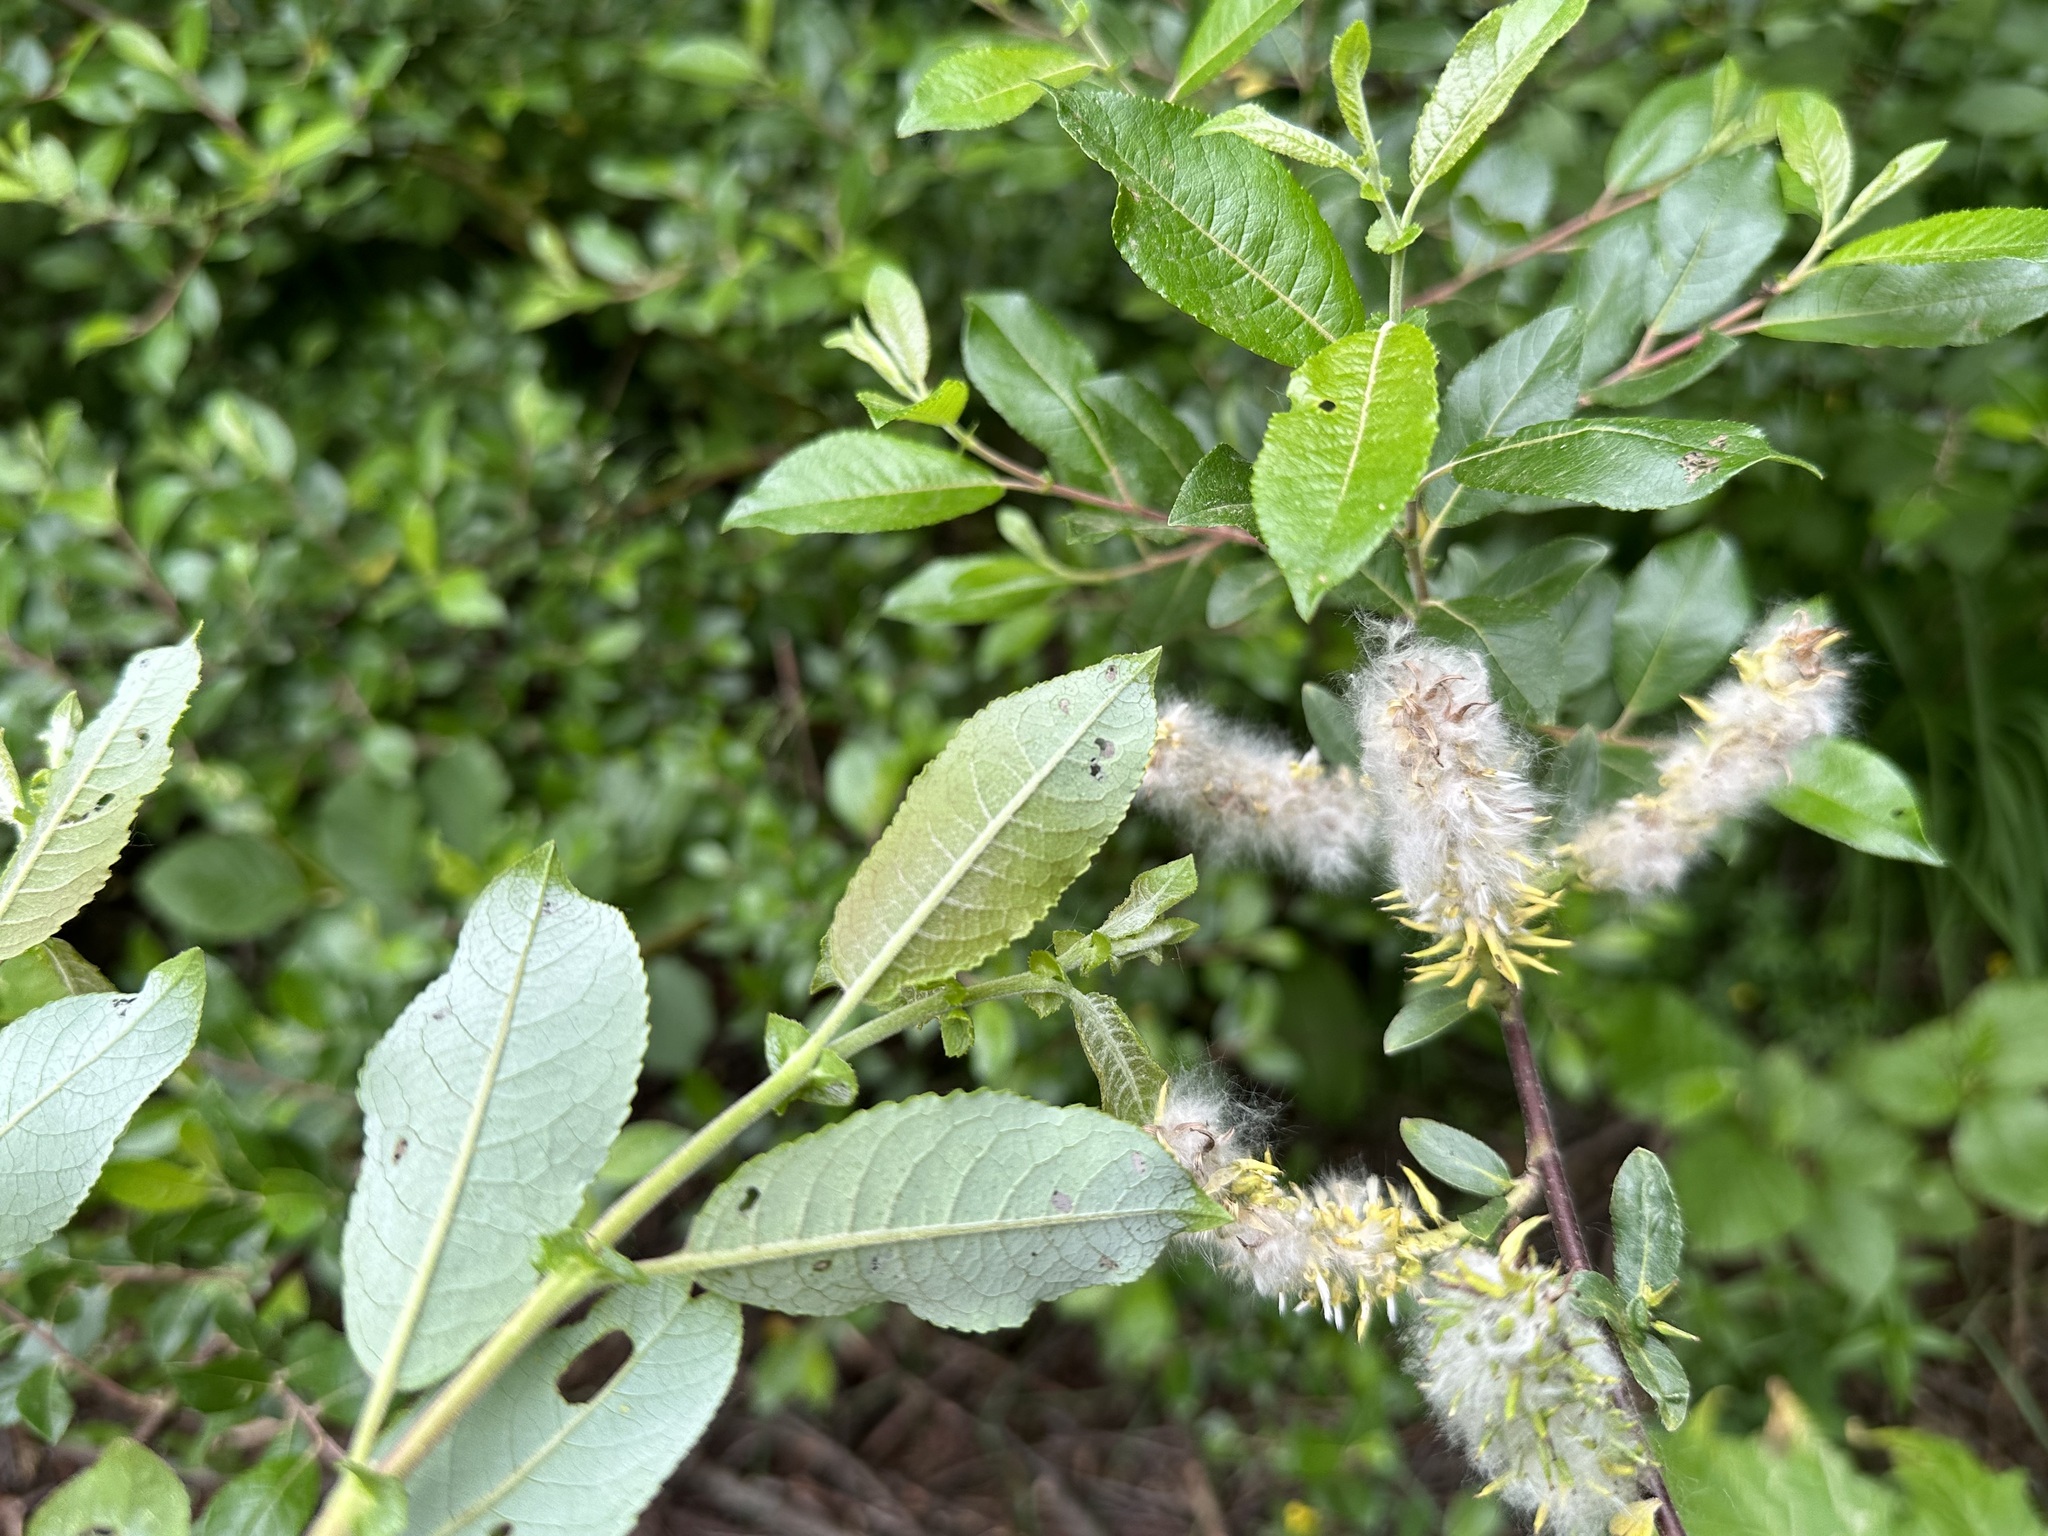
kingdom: Plantae
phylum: Tracheophyta
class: Magnoliopsida
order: Malpighiales
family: Salicaceae
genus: Salix
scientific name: Salix myrsinifolia
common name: Dark-leaved willow
